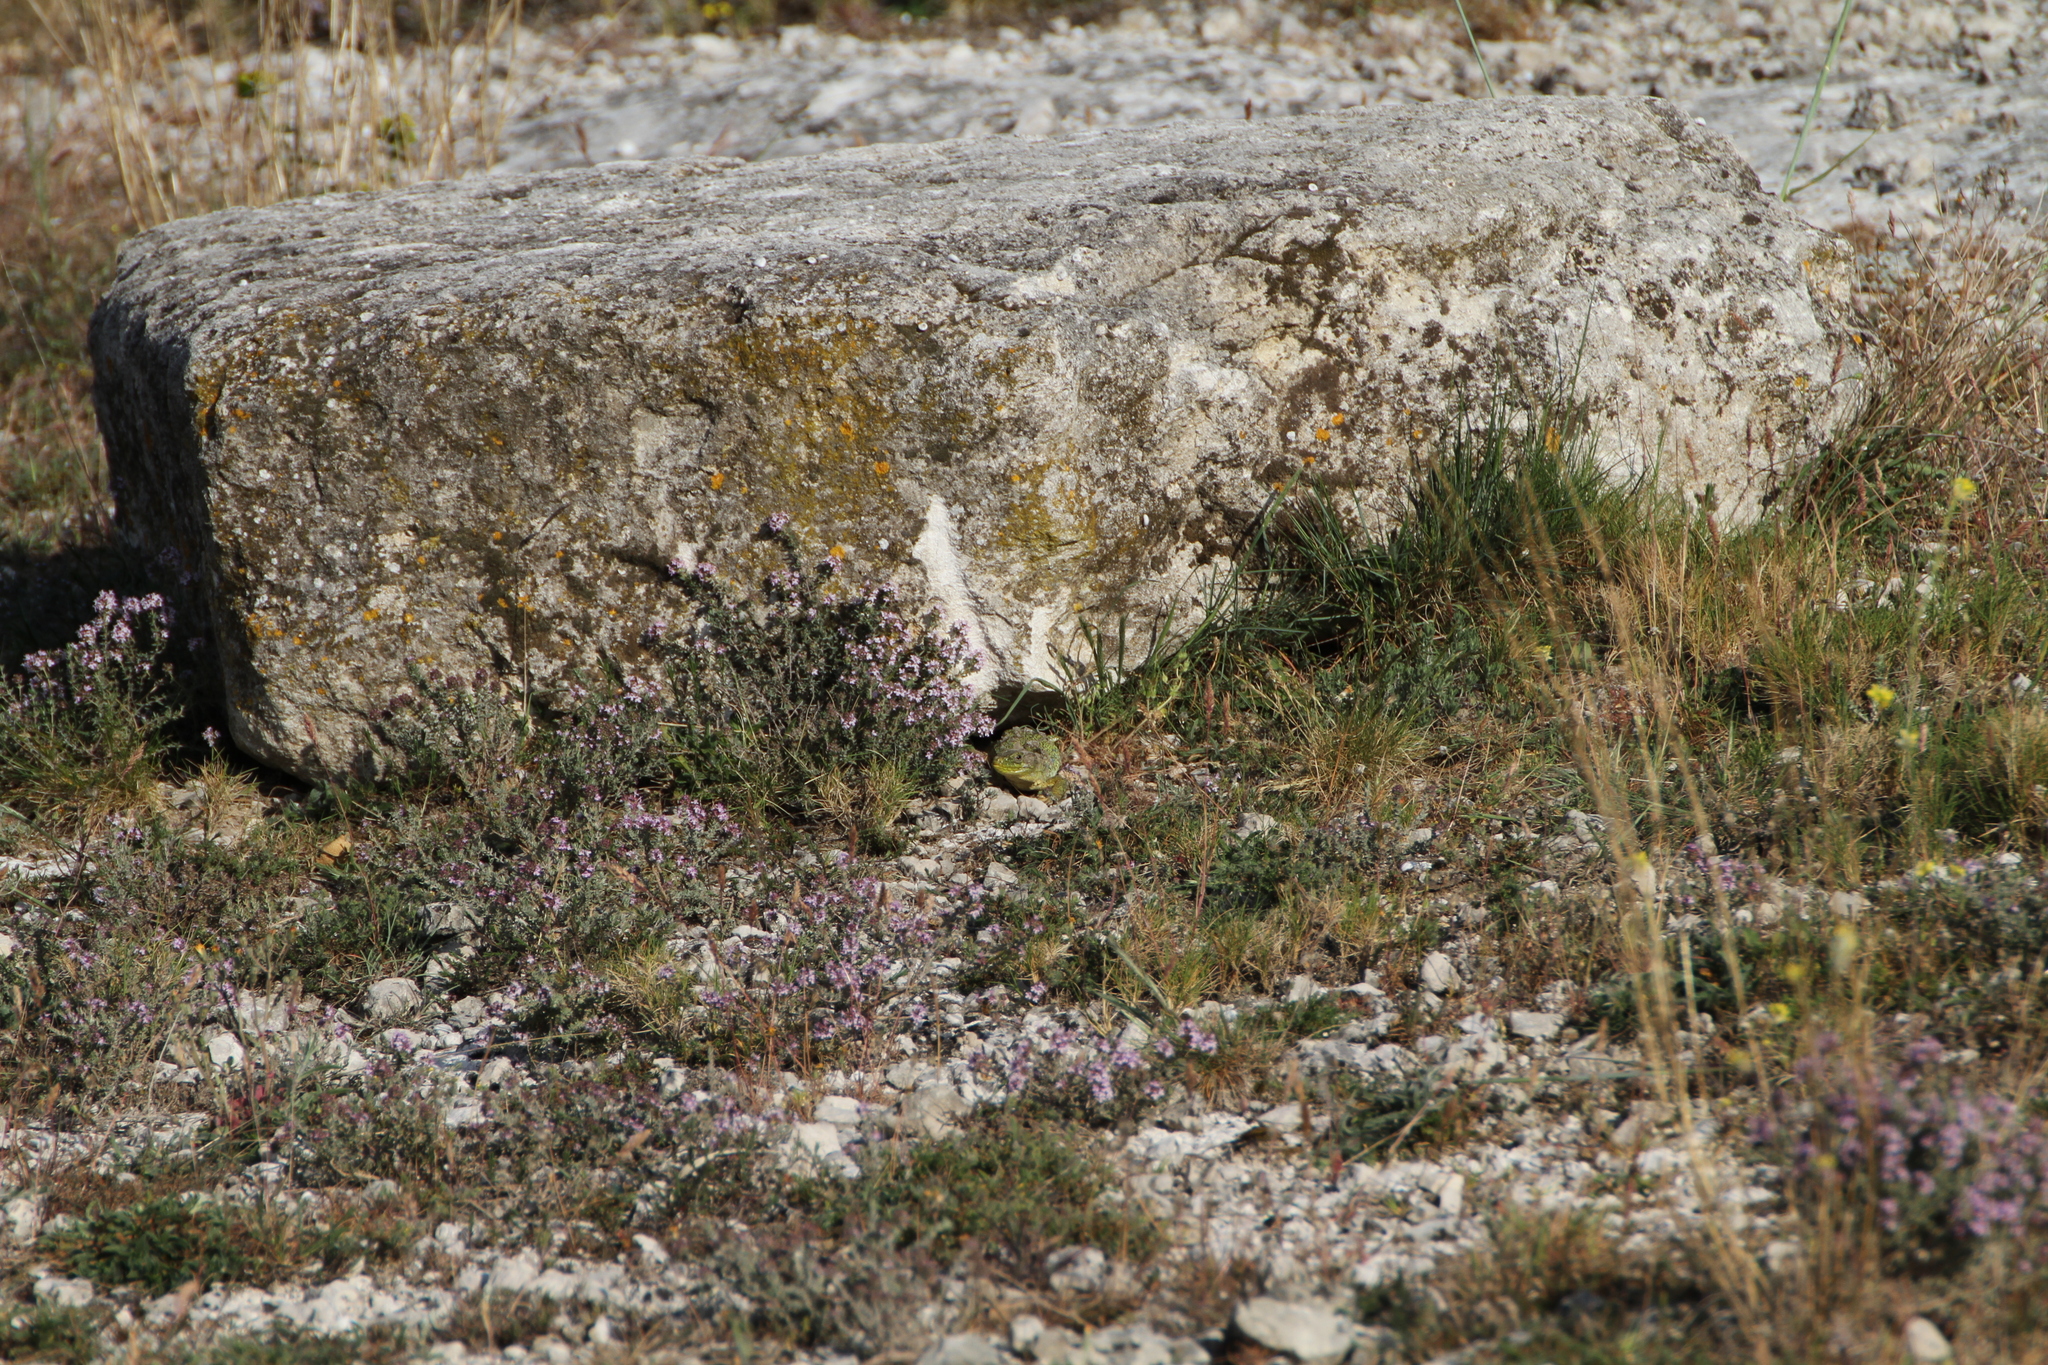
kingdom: Animalia
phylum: Chordata
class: Squamata
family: Lacertidae
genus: Timon
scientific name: Timon lepidus
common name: Ocellated lizard
